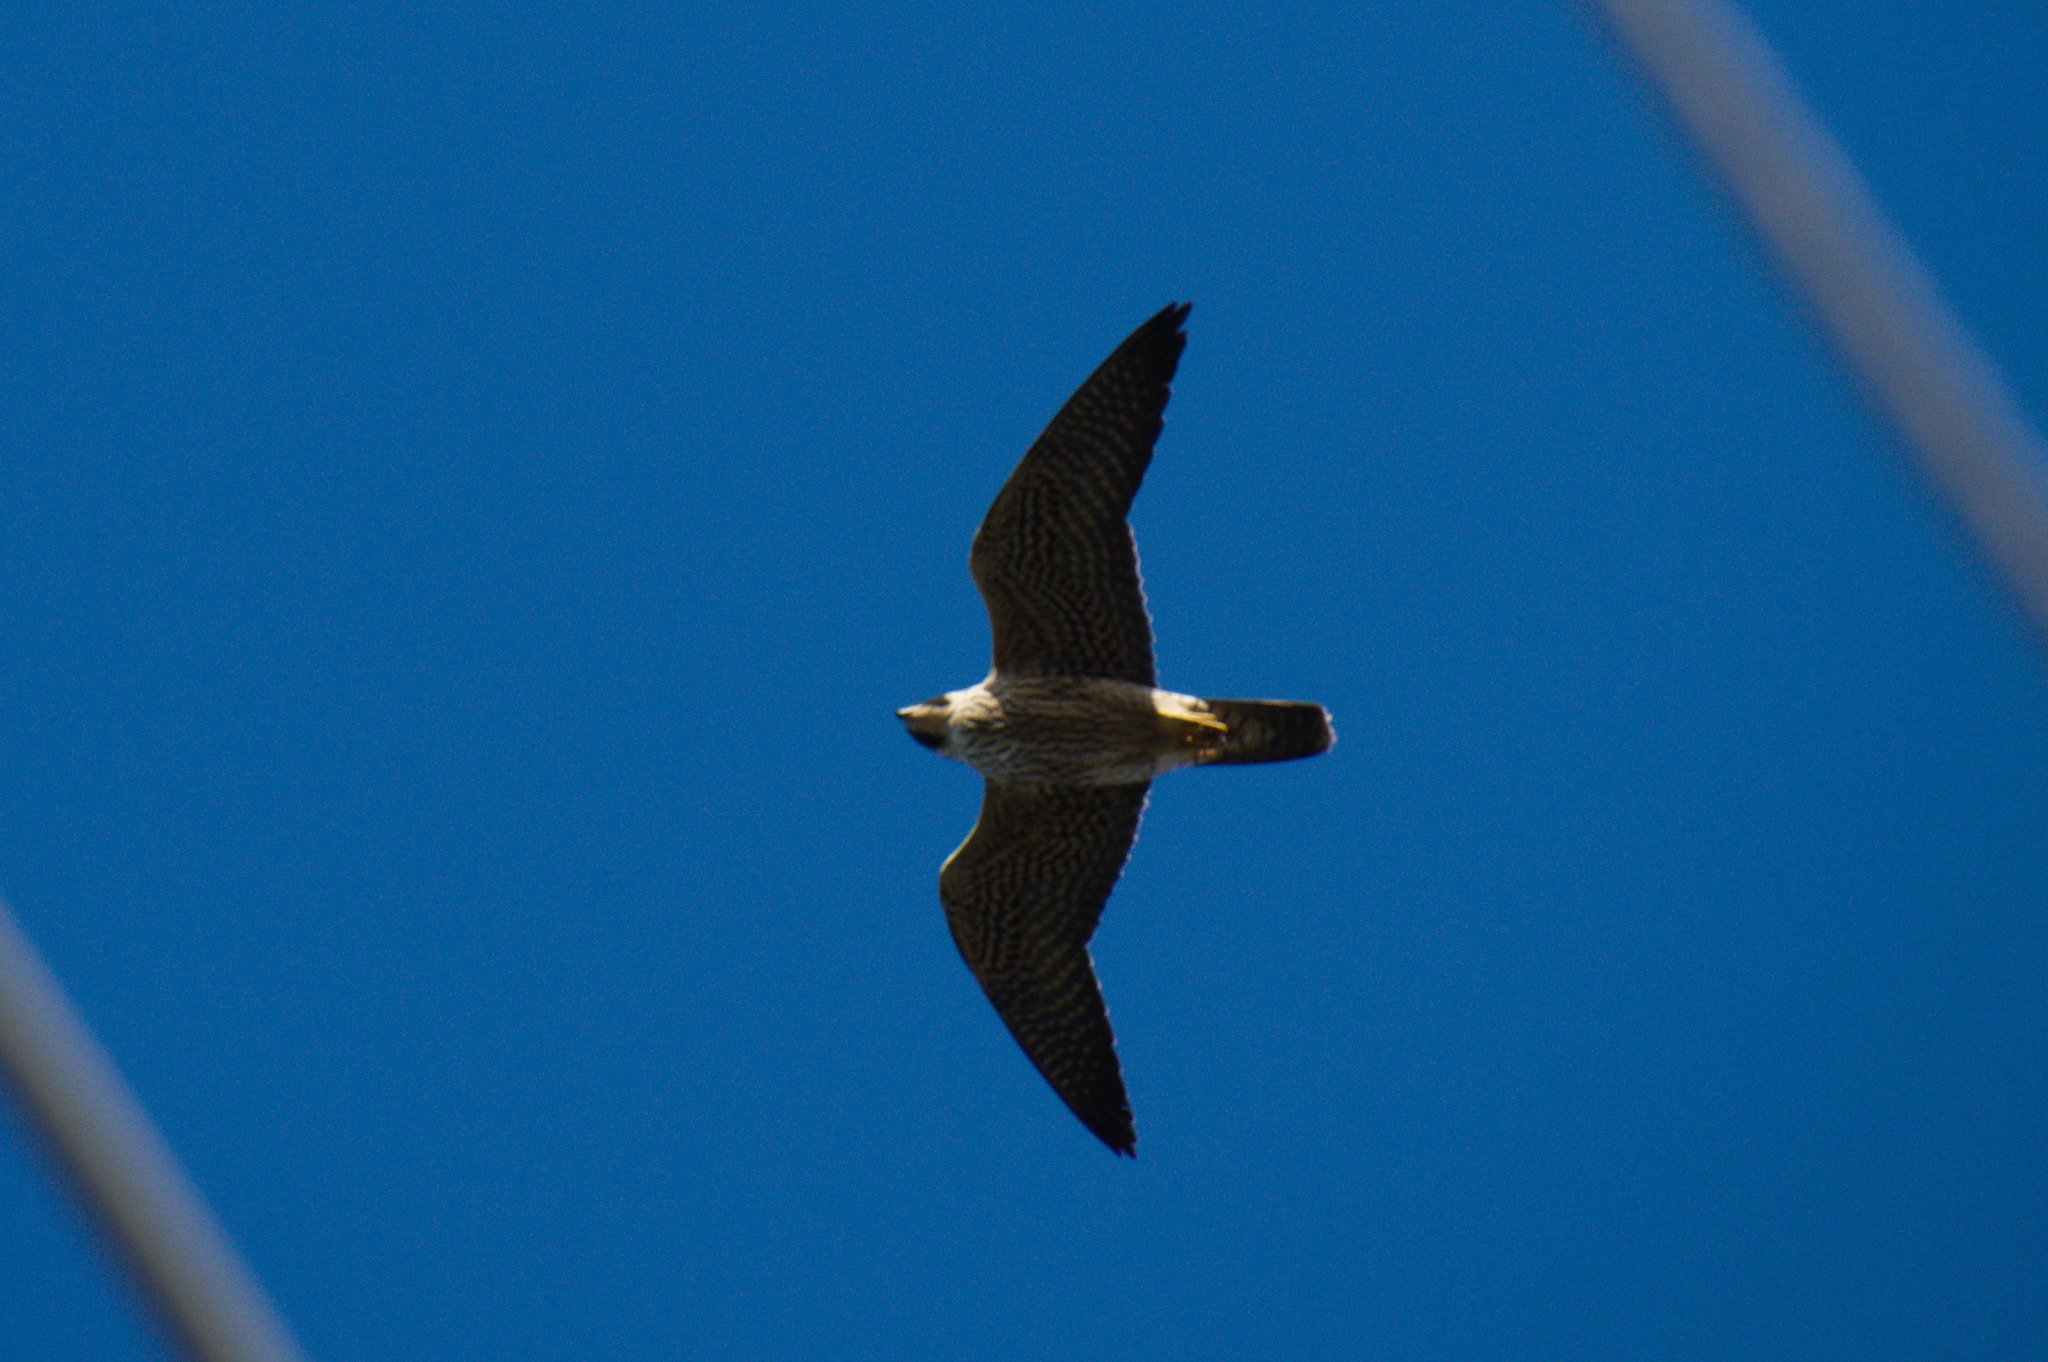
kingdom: Animalia
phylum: Chordata
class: Aves
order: Falconiformes
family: Falconidae
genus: Falco
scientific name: Falco peregrinus
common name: Peregrine falcon
